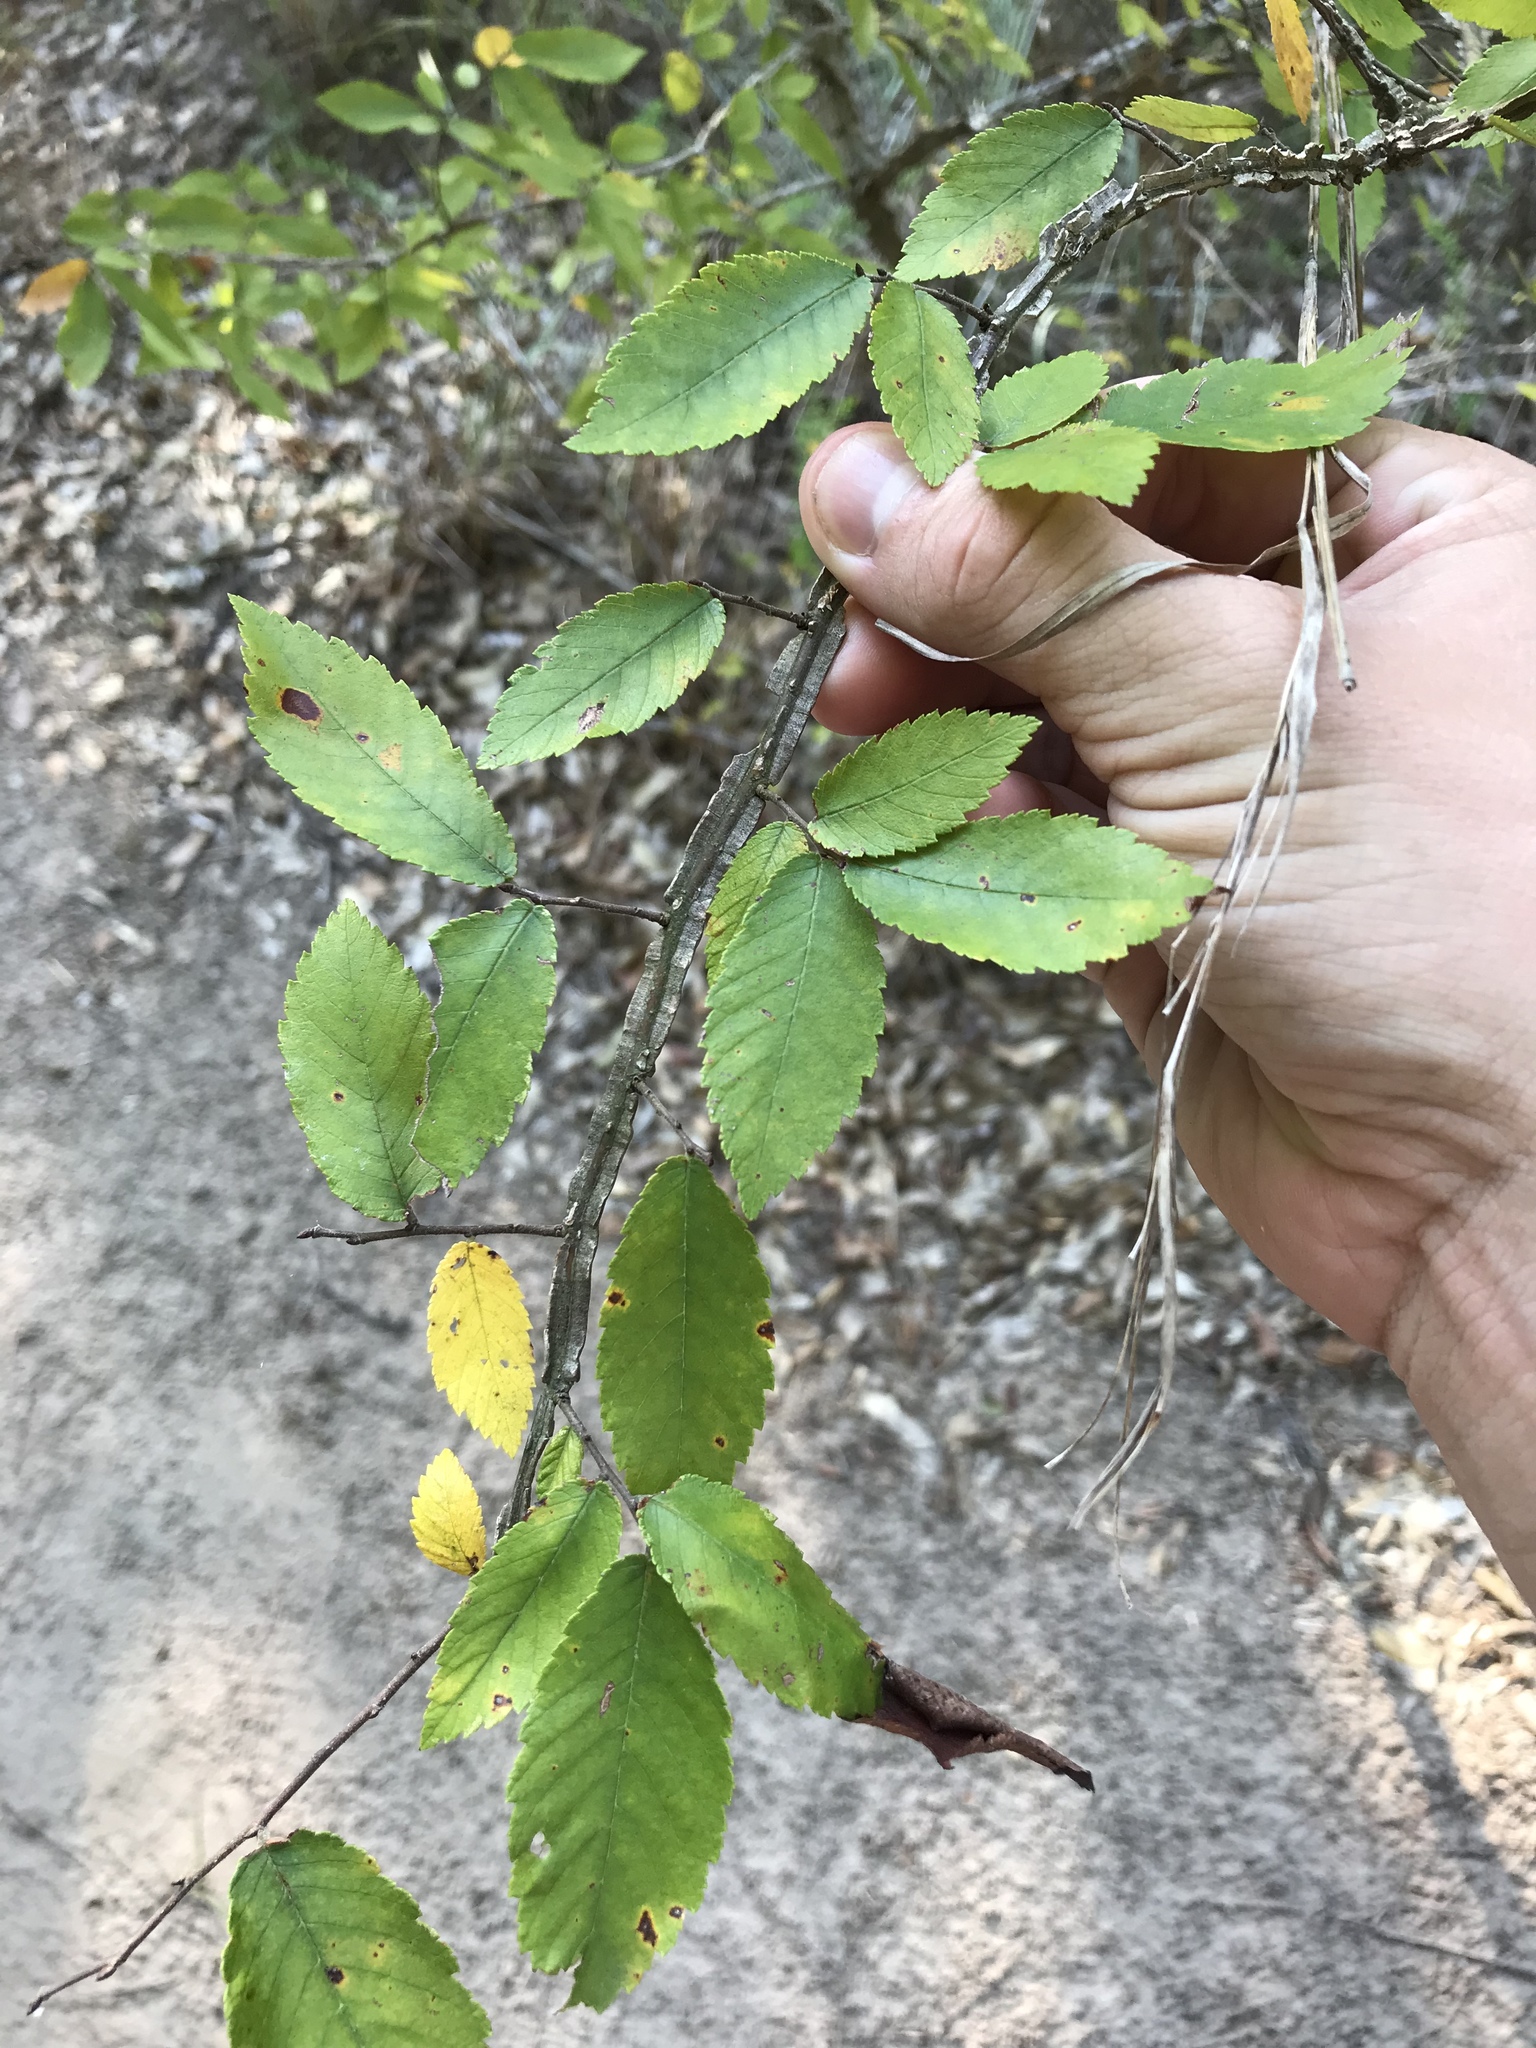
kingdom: Plantae
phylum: Tracheophyta
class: Magnoliopsida
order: Rosales
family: Ulmaceae
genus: Ulmus
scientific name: Ulmus alata
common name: Winged elm
